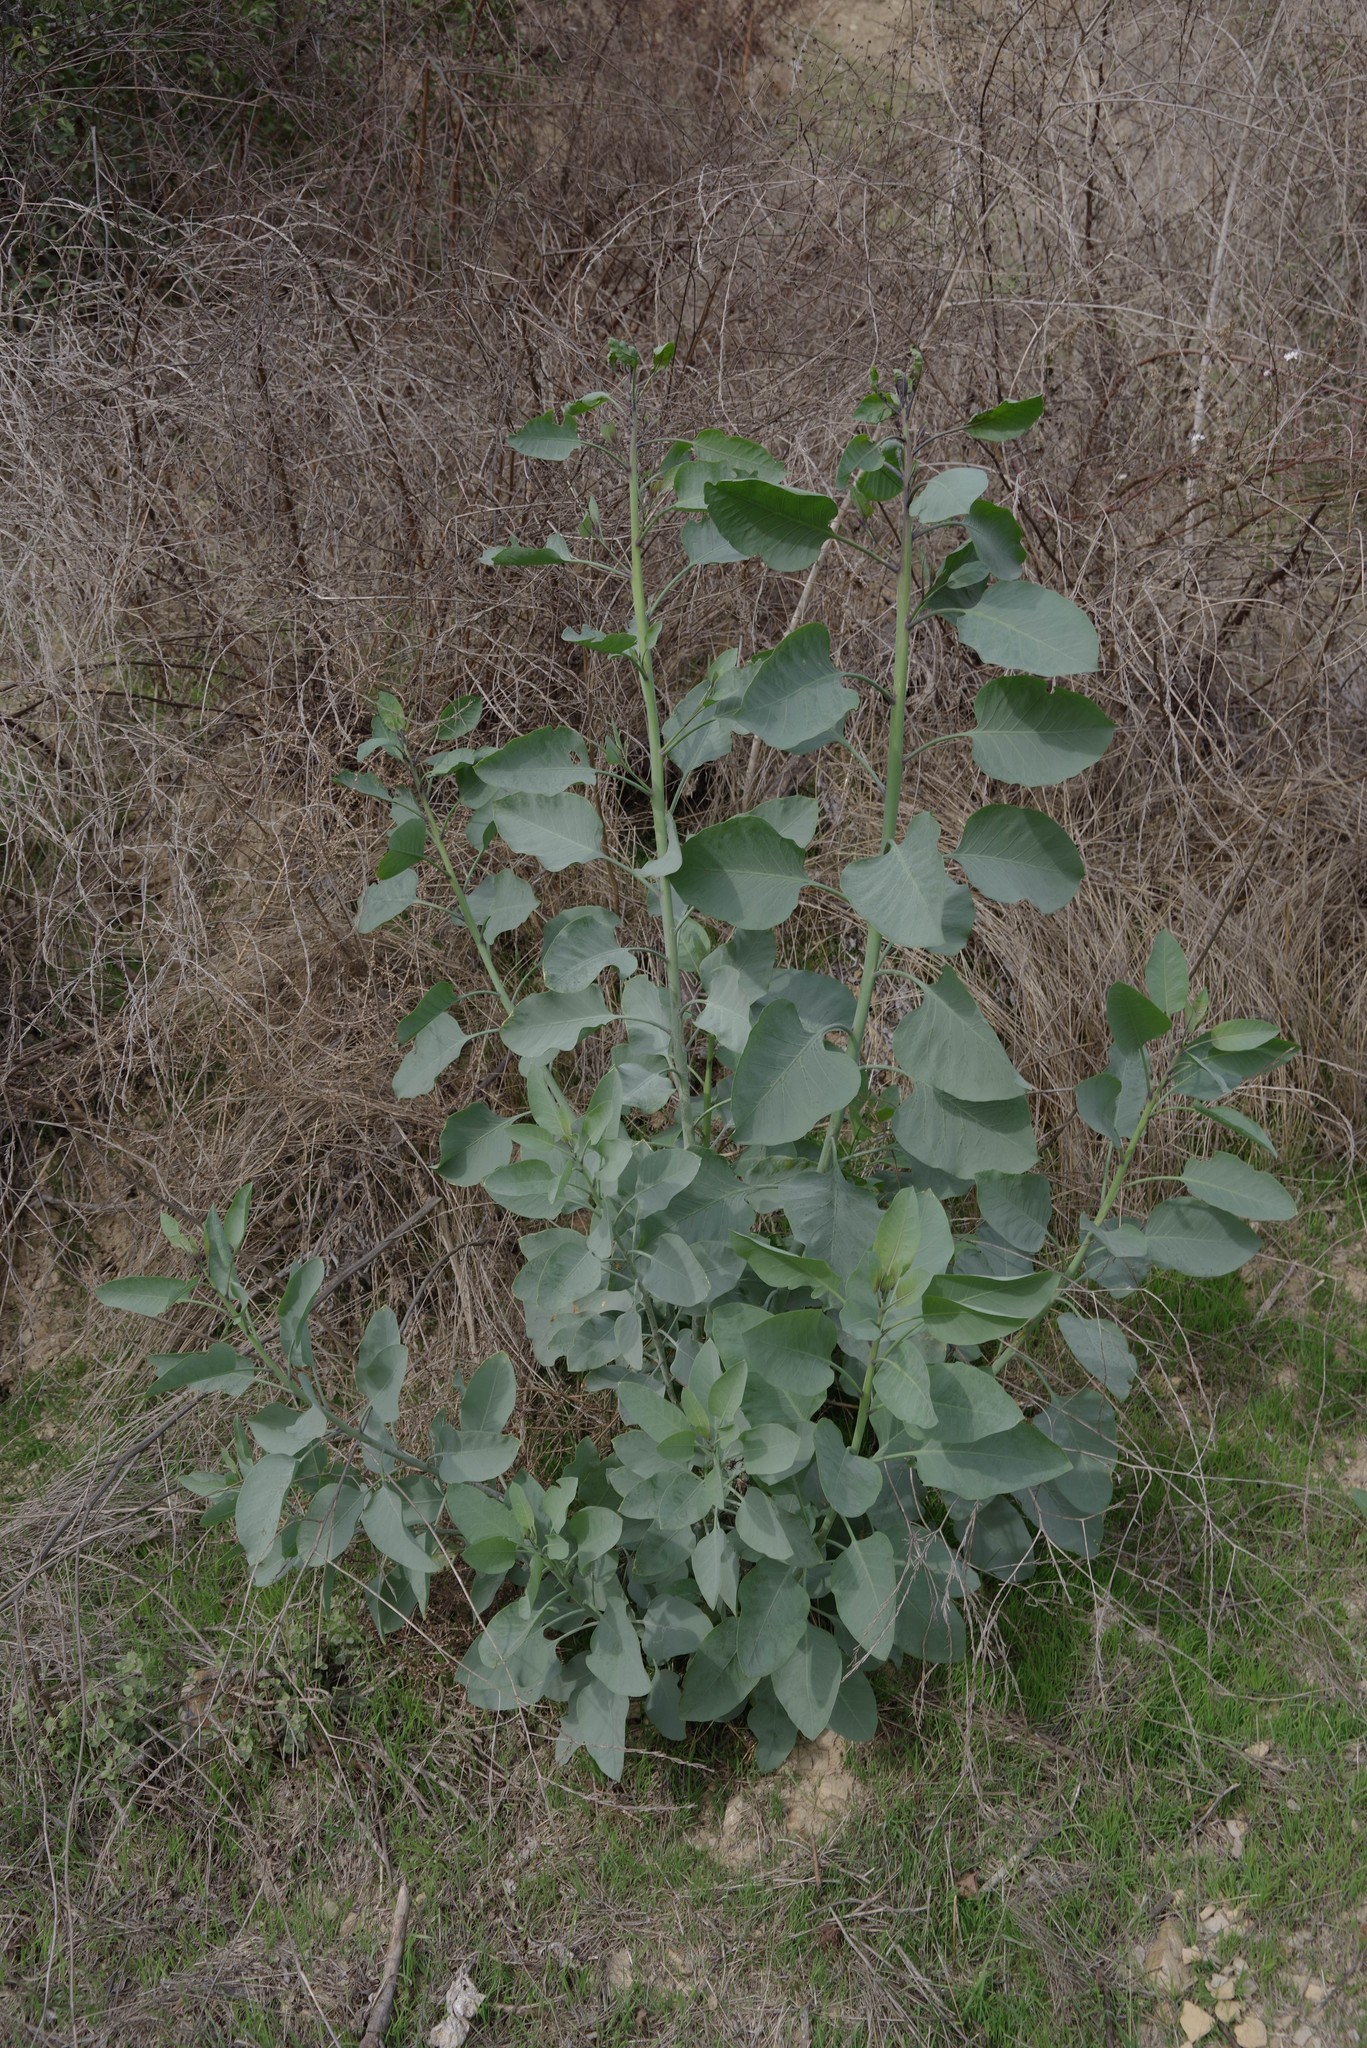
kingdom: Plantae
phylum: Tracheophyta
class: Magnoliopsida
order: Solanales
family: Solanaceae
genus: Nicotiana
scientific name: Nicotiana glauca
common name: Tree tobacco
